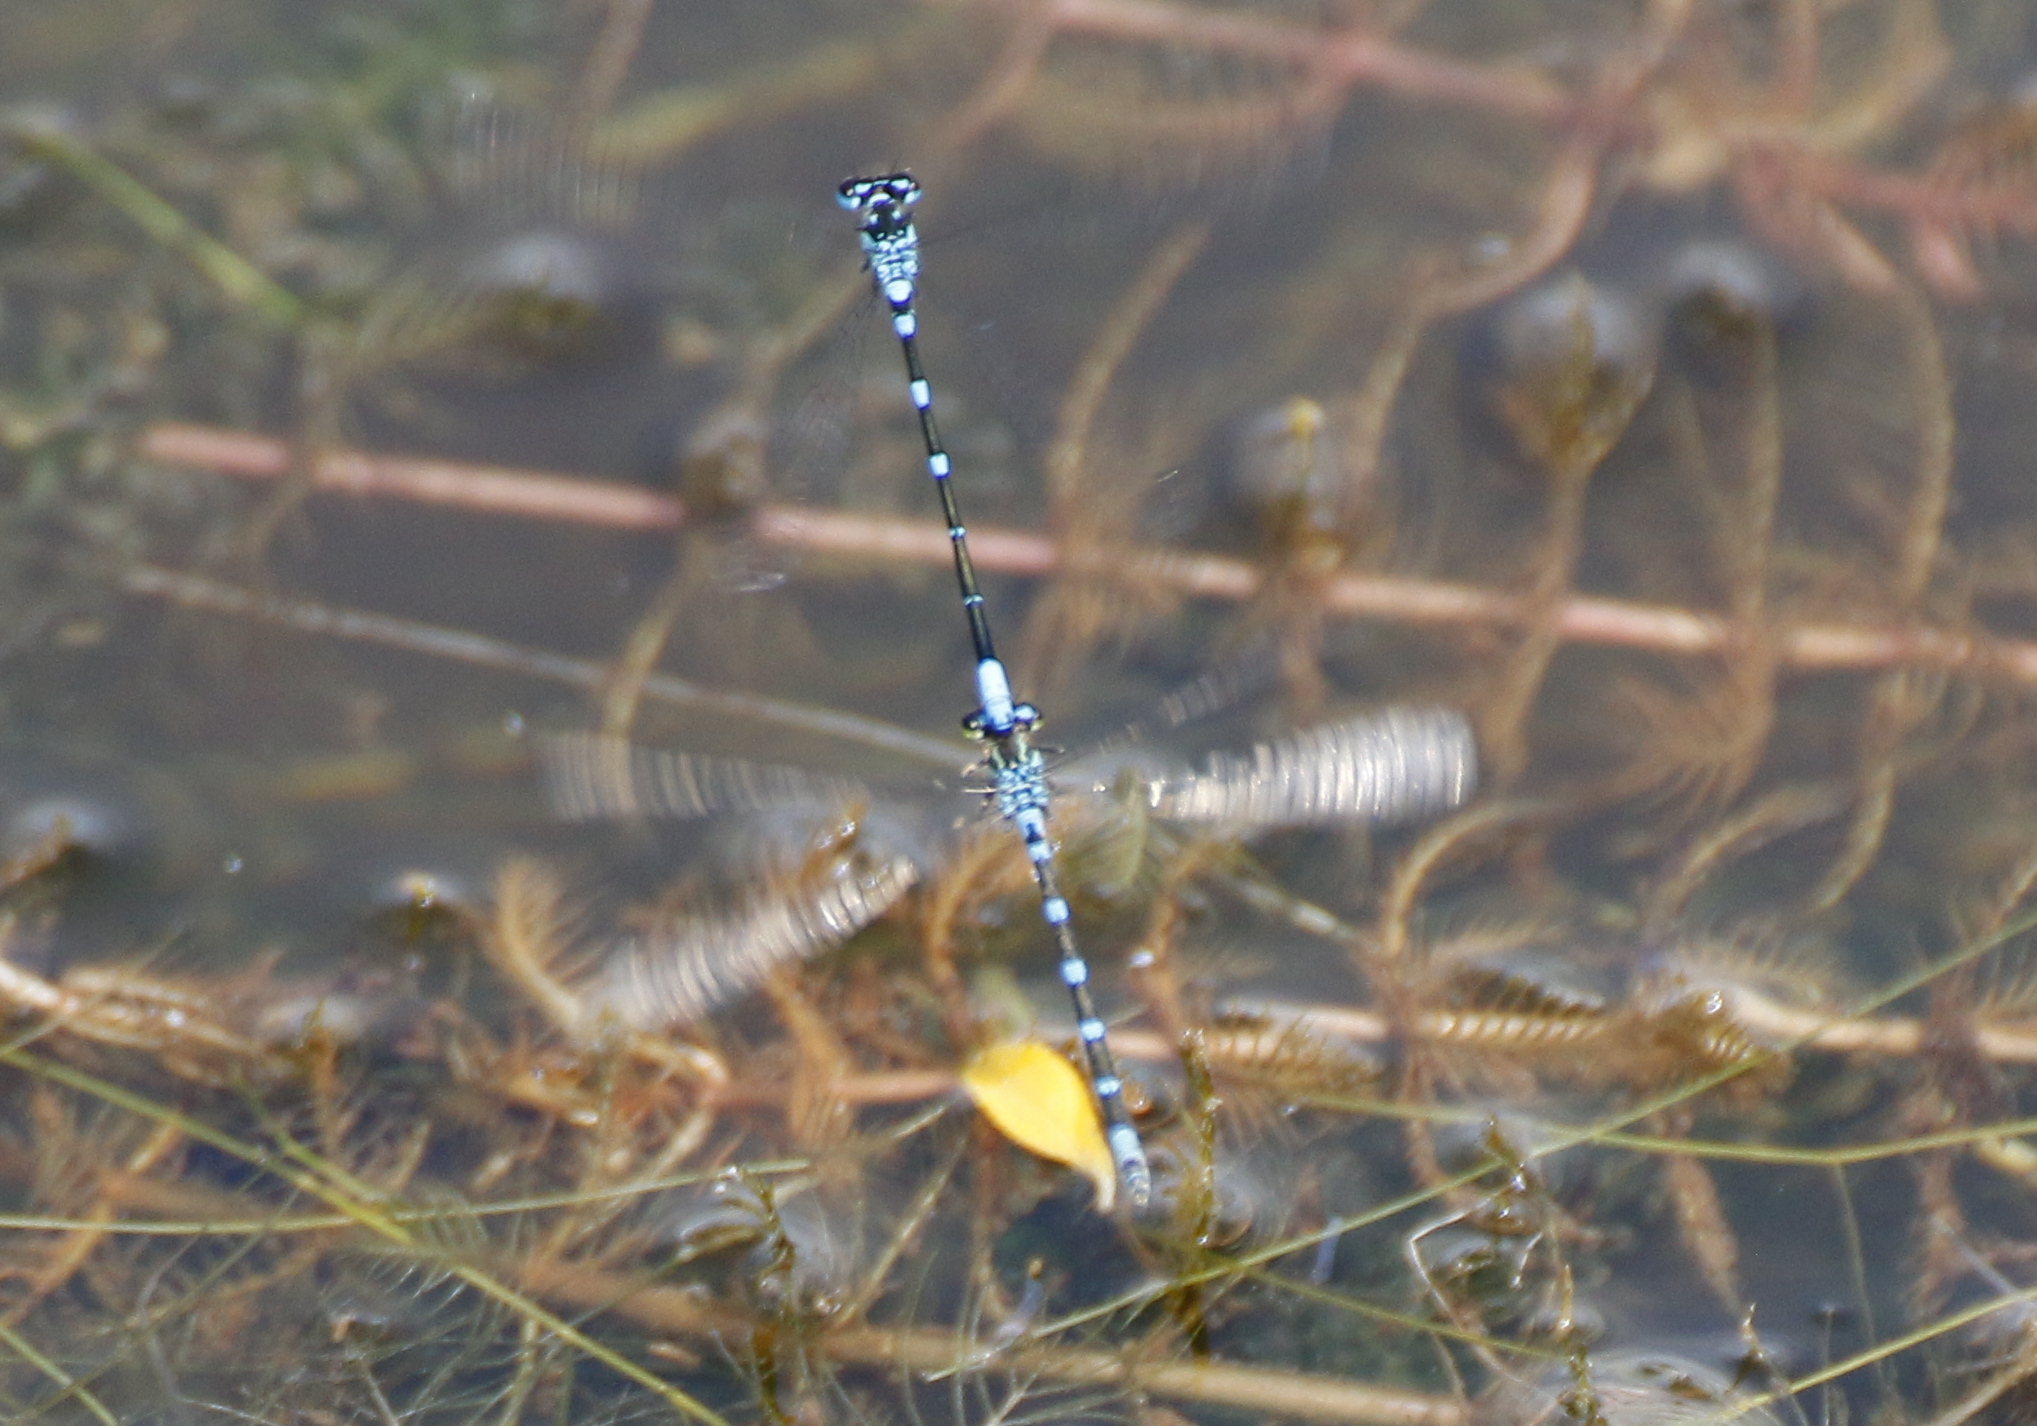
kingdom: Animalia
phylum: Arthropoda
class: Insecta
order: Odonata
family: Coenagrionidae
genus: Coenagrion
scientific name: Coenagrion pulchellum
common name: Variable bluet
